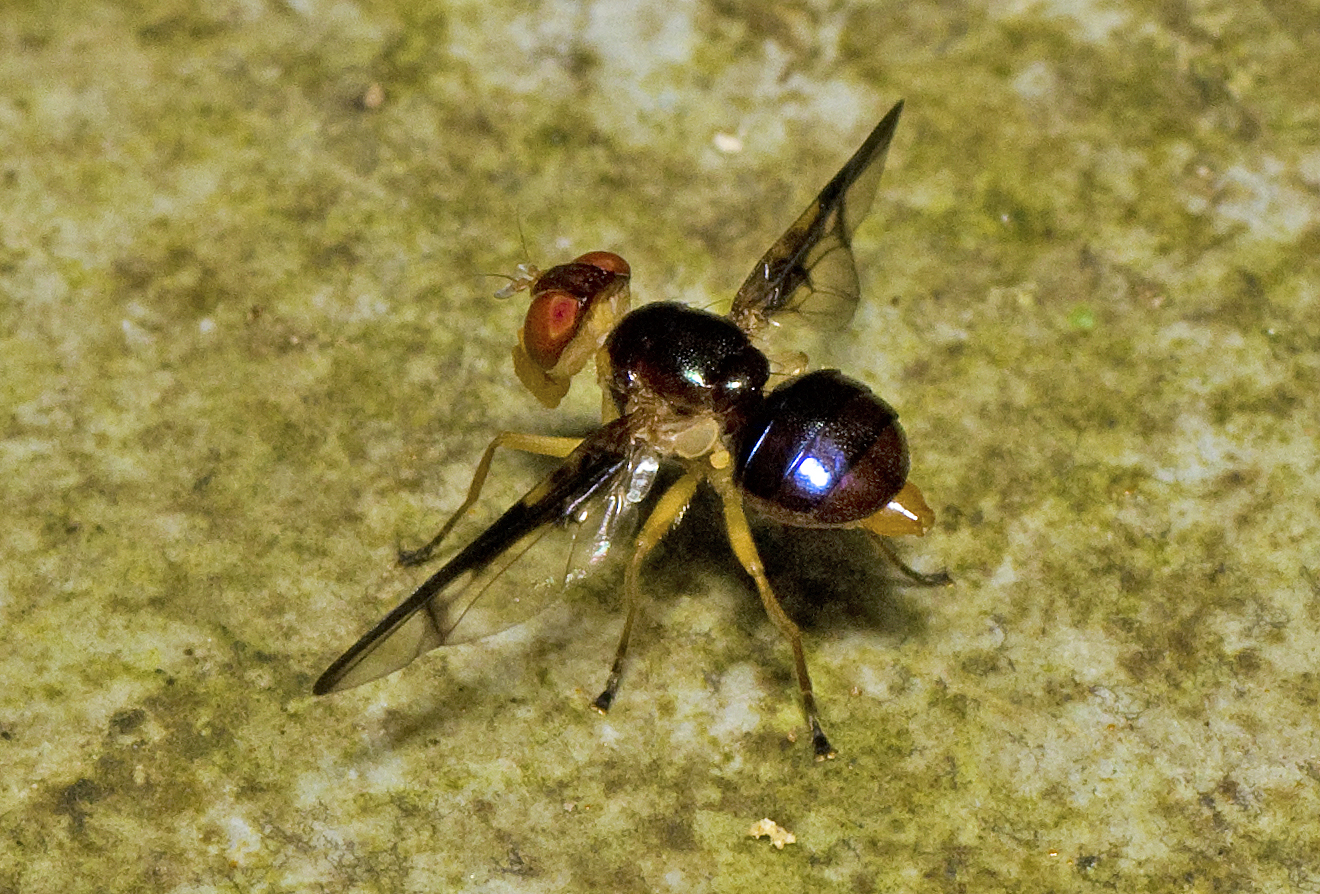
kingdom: Animalia
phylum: Arthropoda
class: Insecta
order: Diptera
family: Platystomatidae
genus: Lamprogaster
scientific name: Lamprogaster stenoparia
